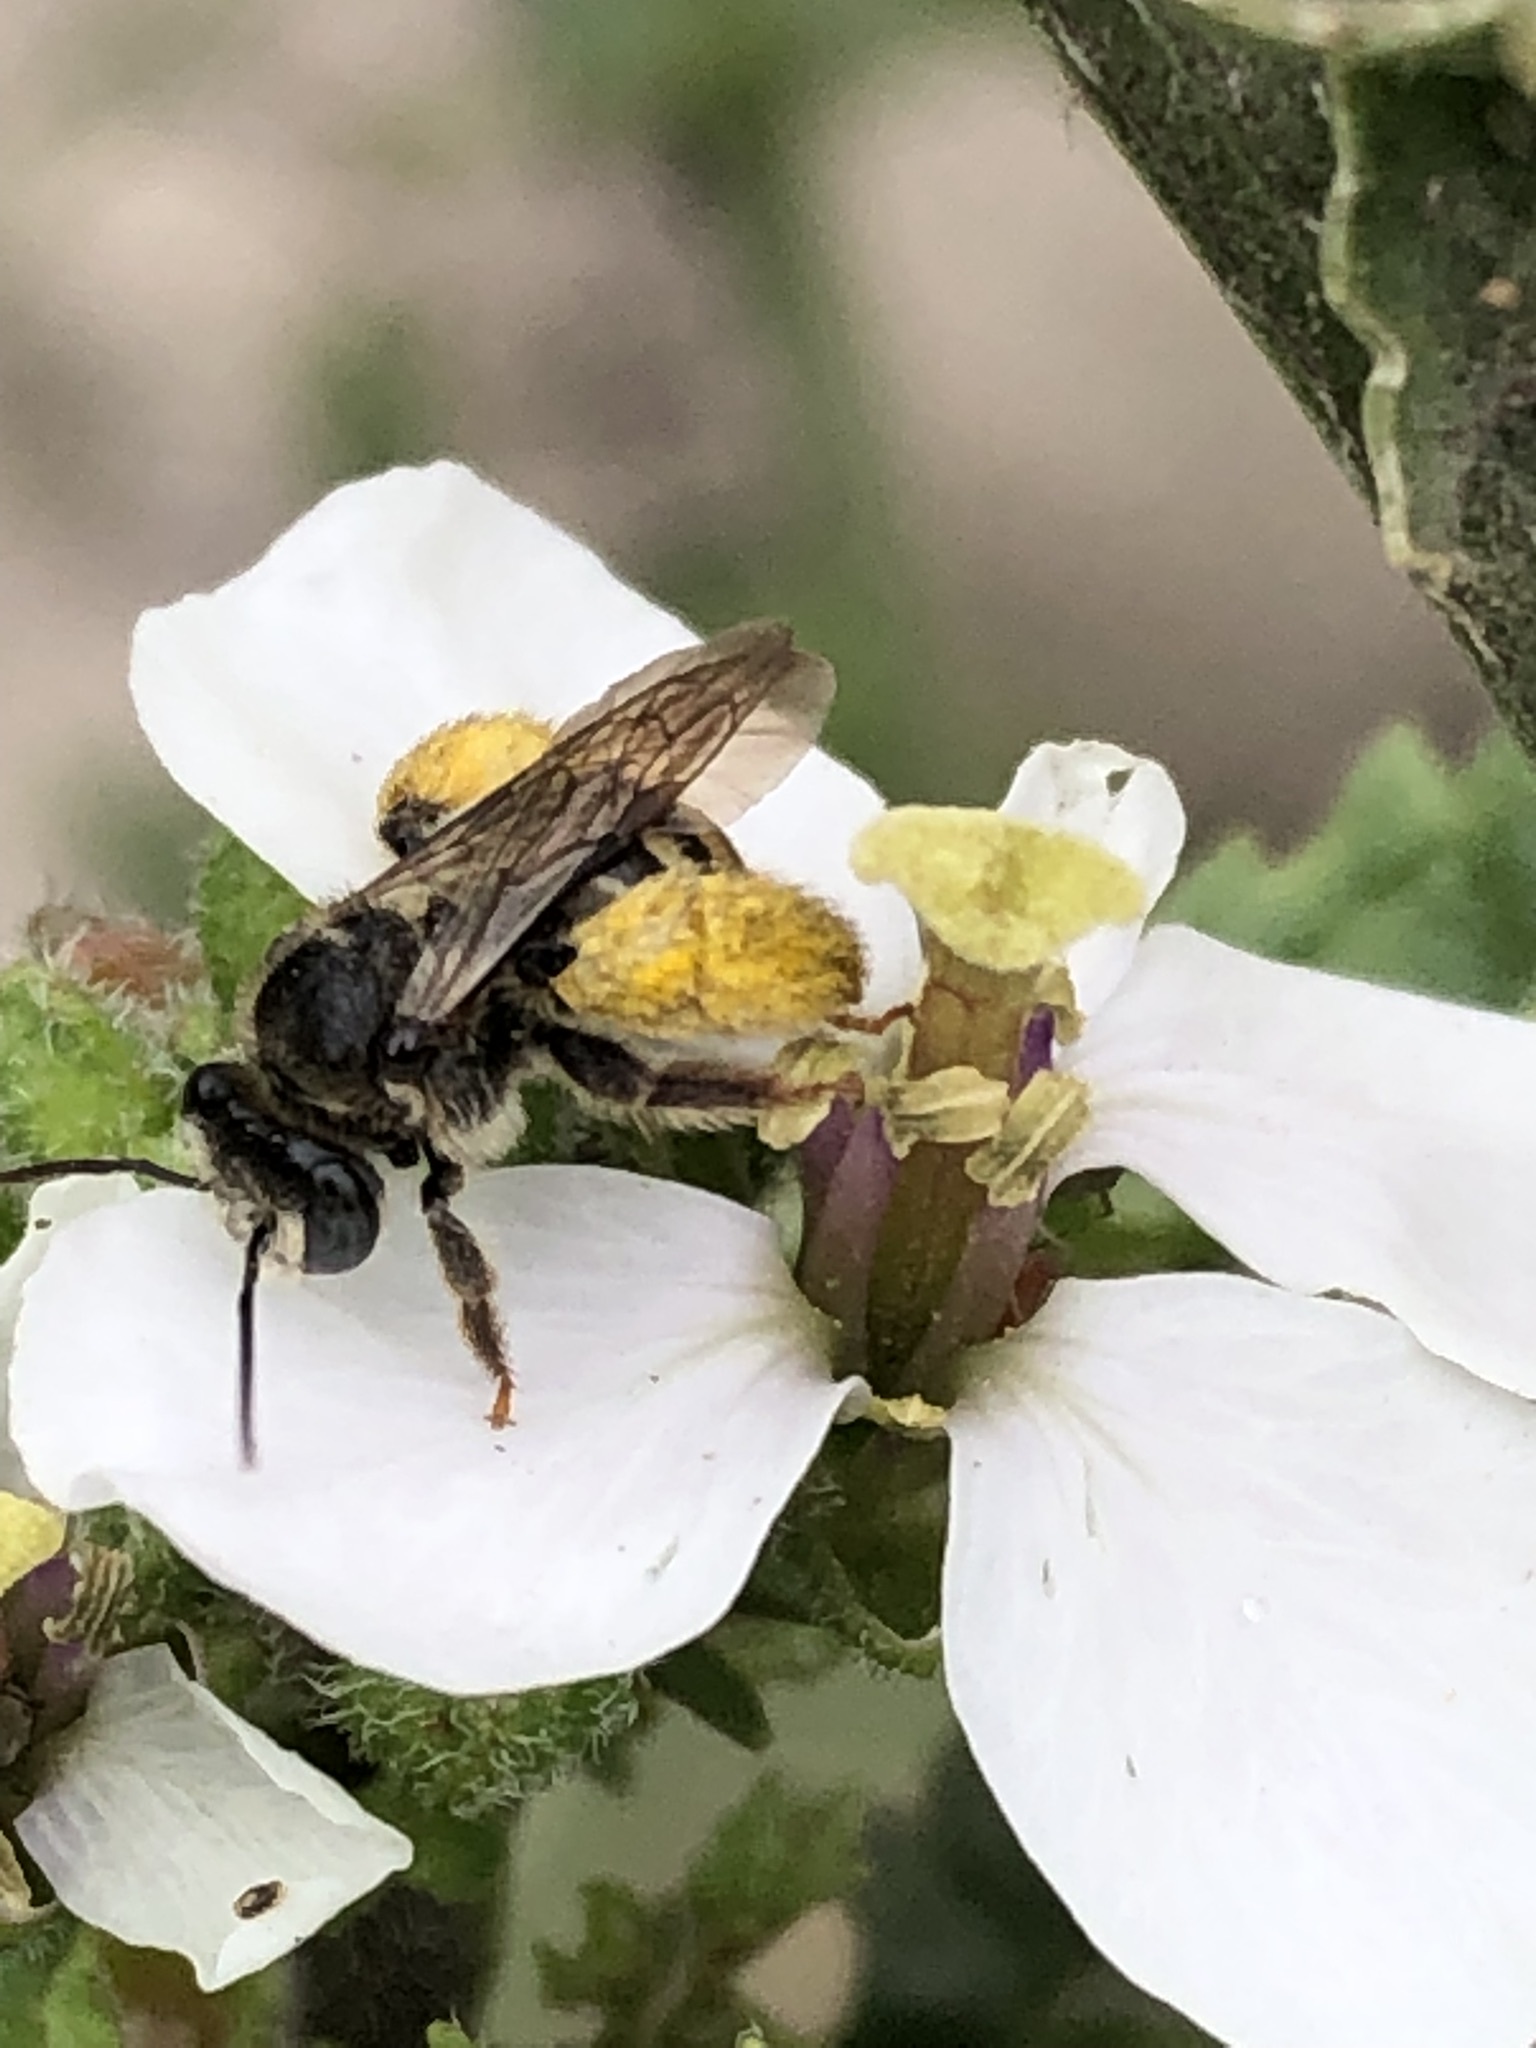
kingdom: Animalia
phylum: Arthropoda
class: Insecta
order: Hymenoptera
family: Apidae
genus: Exomalopsis
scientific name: Exomalopsis bruesi
